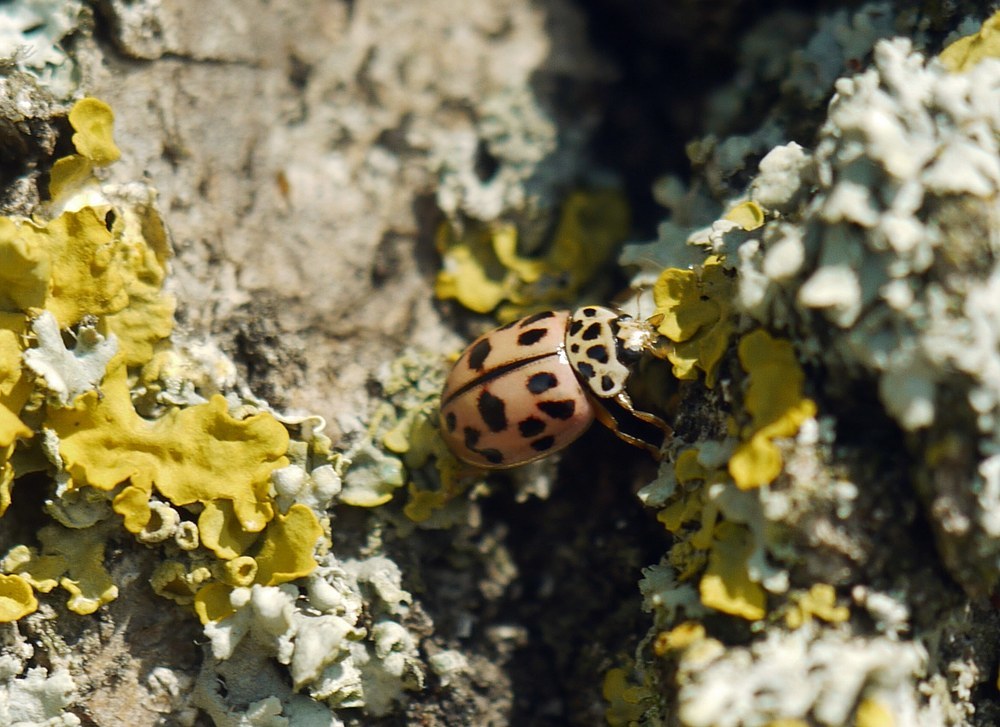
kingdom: Animalia
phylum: Arthropoda
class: Insecta
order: Coleoptera
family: Coccinellidae
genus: Oenopia
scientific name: Oenopia conglobata
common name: Ladybird beetle
